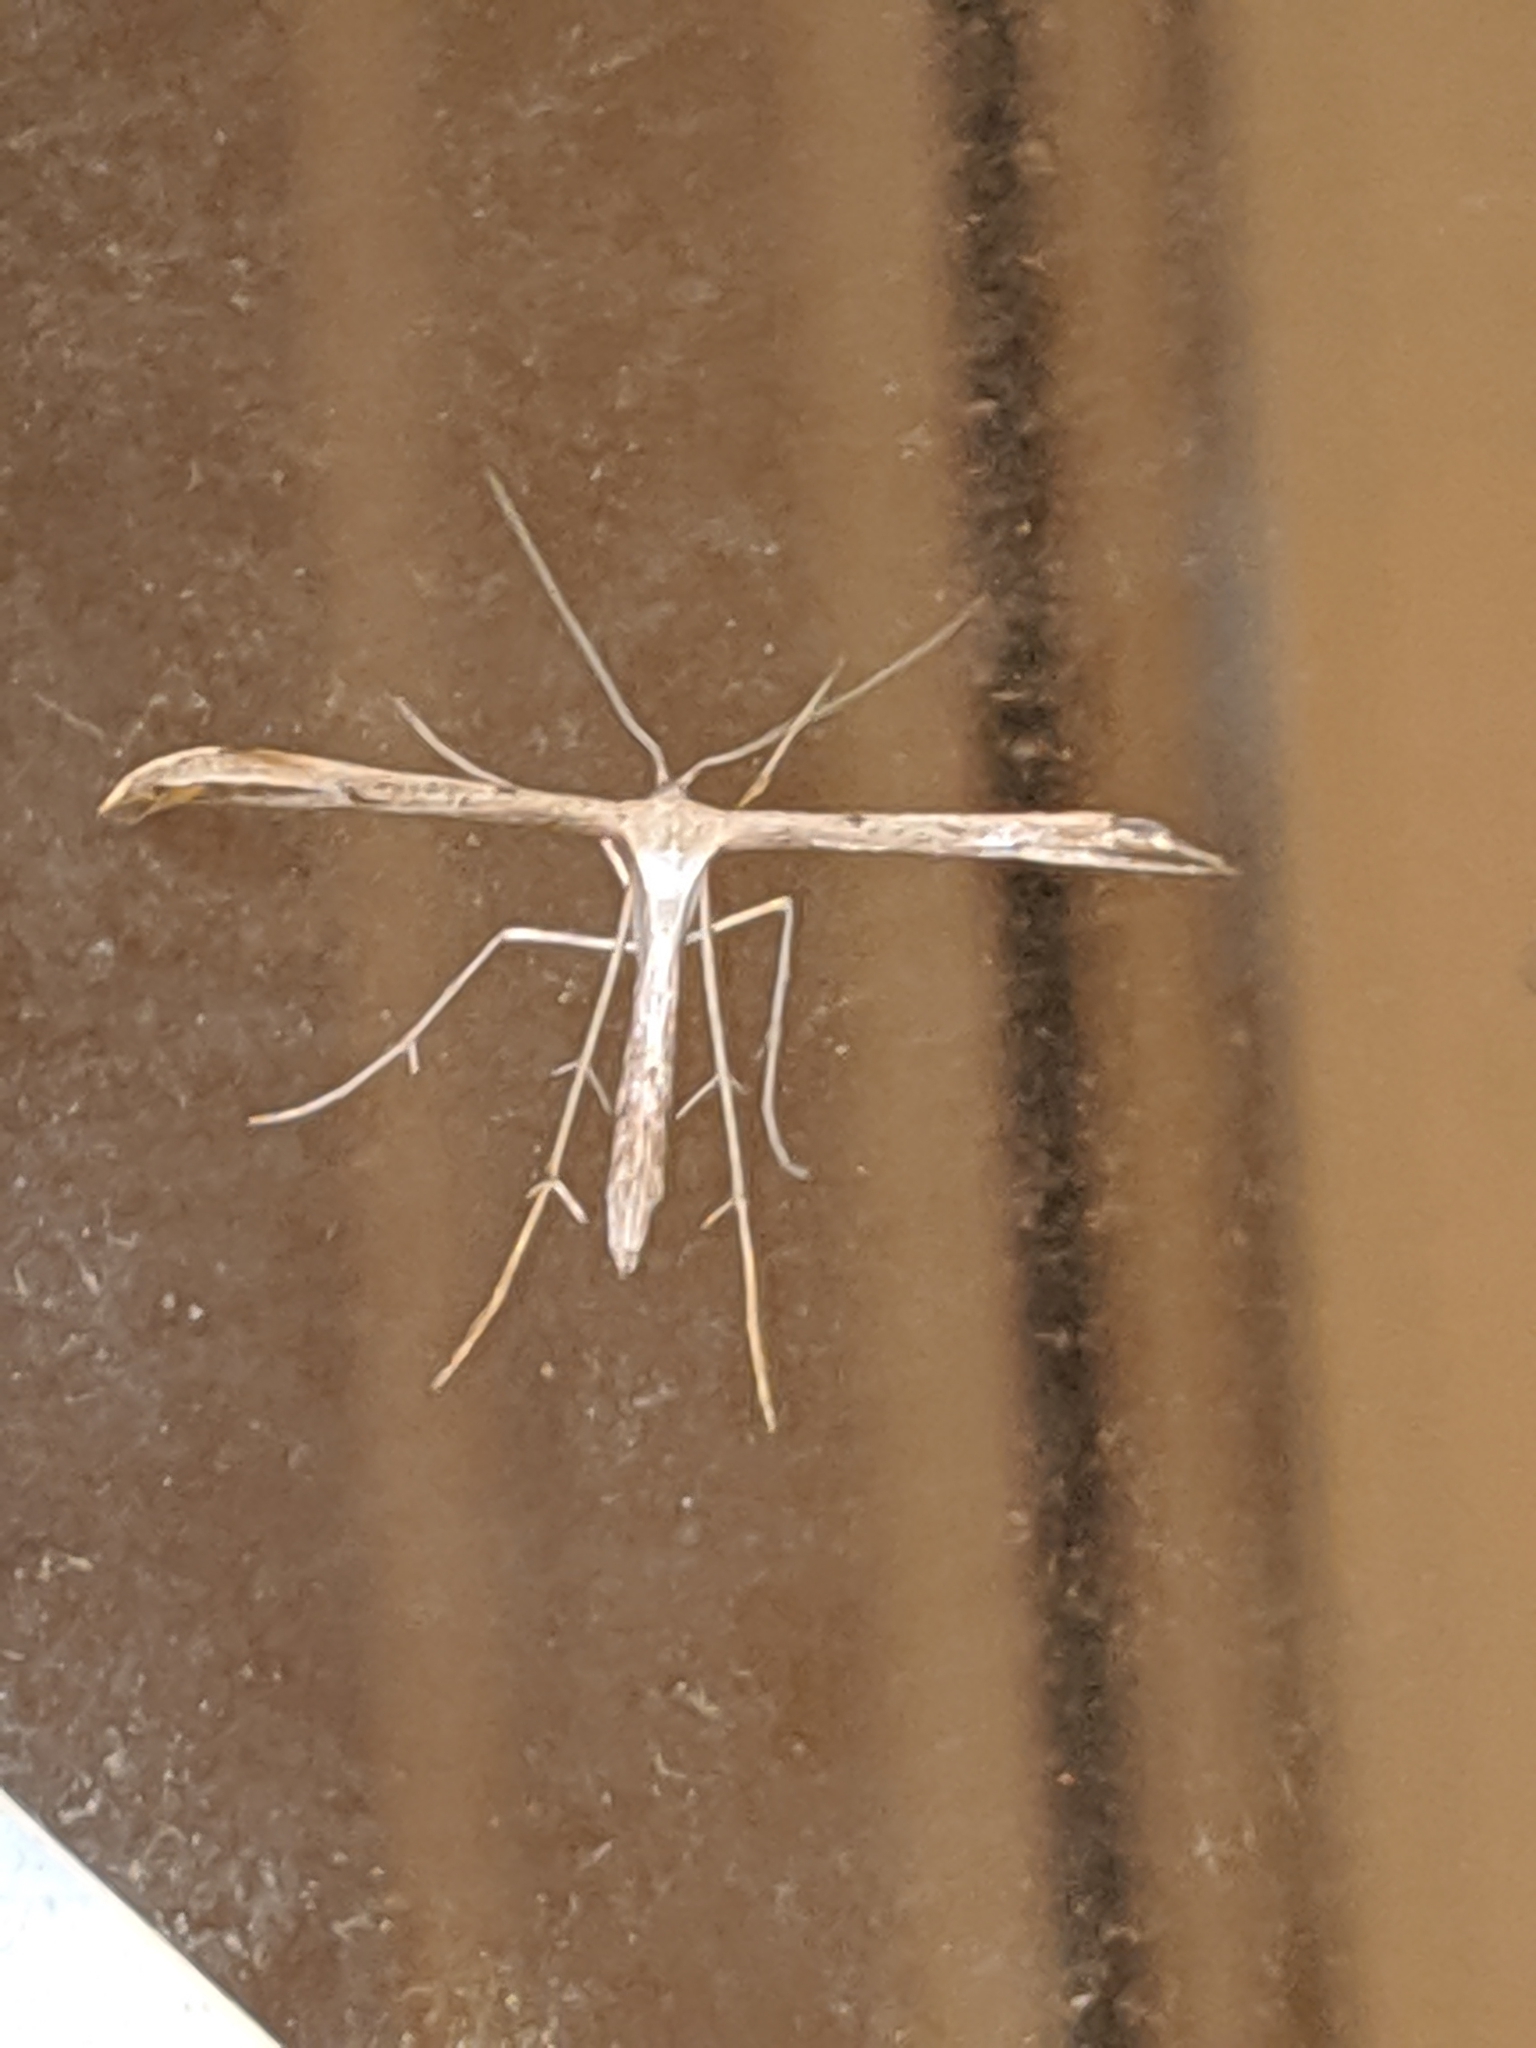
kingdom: Animalia
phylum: Arthropoda
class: Insecta
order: Lepidoptera
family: Pterophoridae
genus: Emmelina
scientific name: Emmelina monodactyla
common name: Common plume
